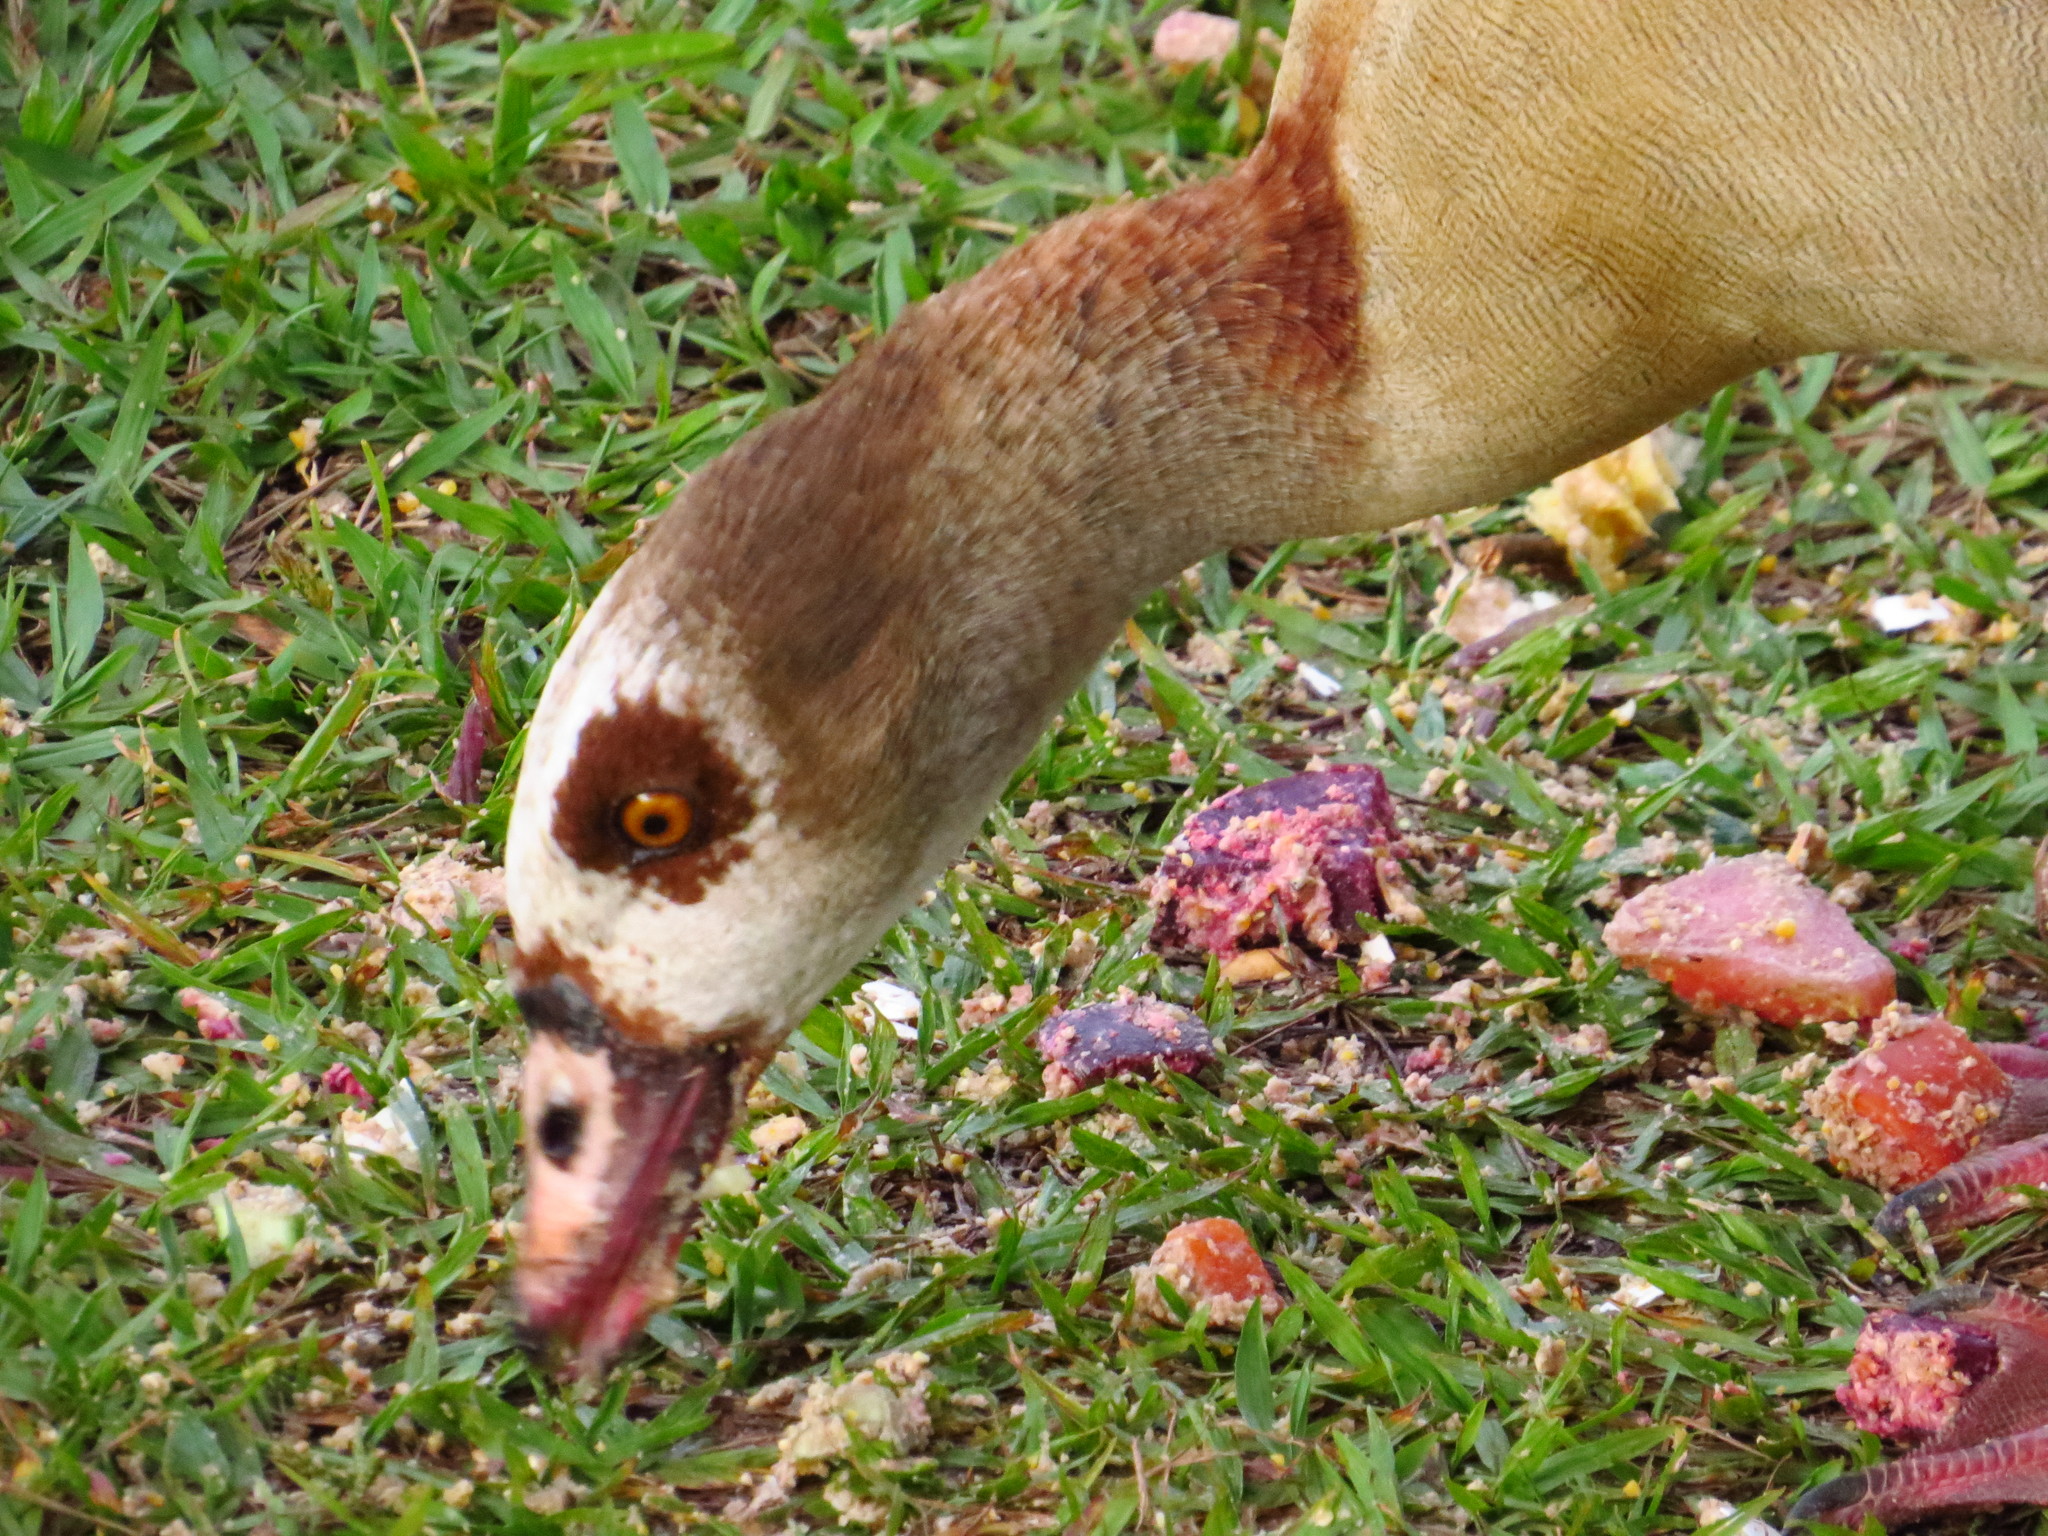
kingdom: Animalia
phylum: Chordata
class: Aves
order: Anseriformes
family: Anatidae
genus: Alopochen
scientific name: Alopochen aegyptiaca
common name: Egyptian goose
